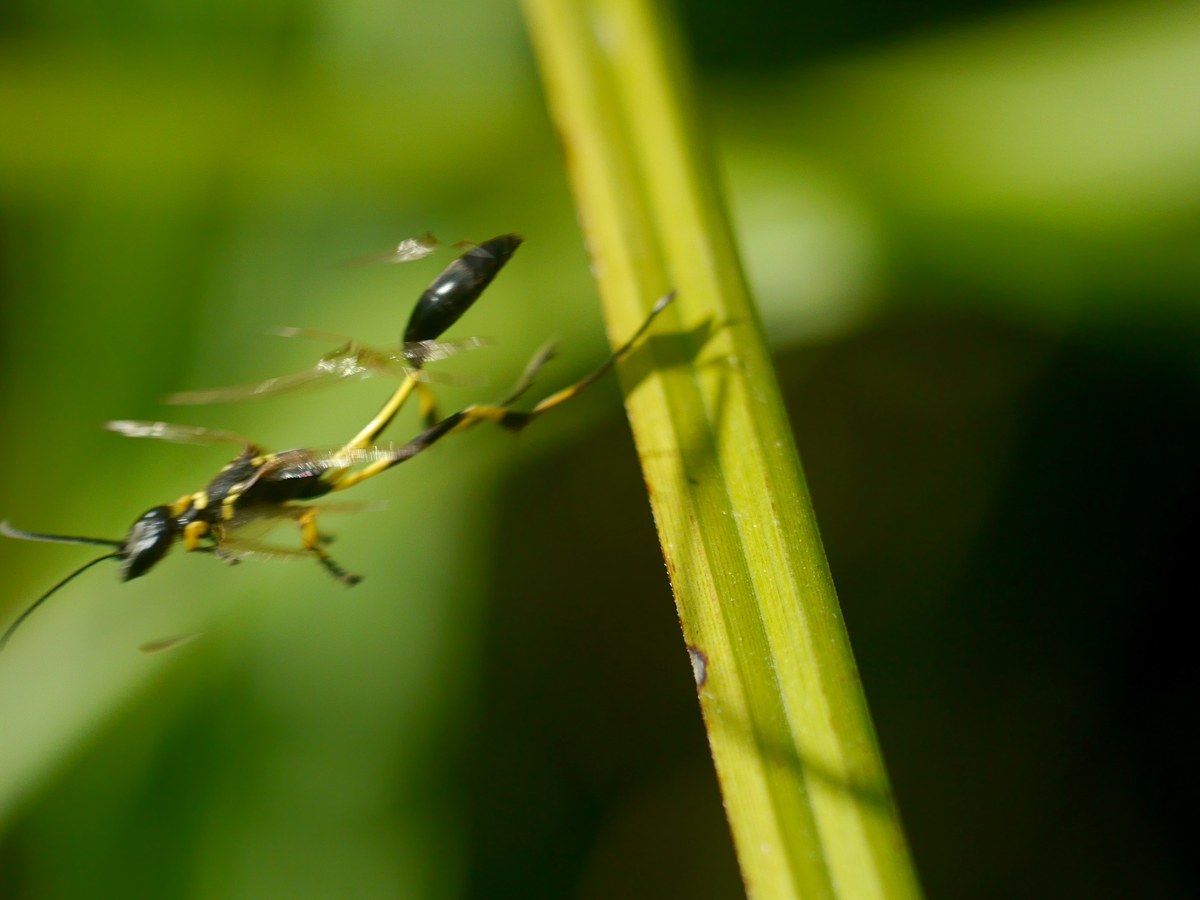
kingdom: Animalia
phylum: Arthropoda
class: Insecta
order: Hymenoptera
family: Sphecidae
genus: Sceliphron
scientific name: Sceliphron madraspatanum
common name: Mud dauber
